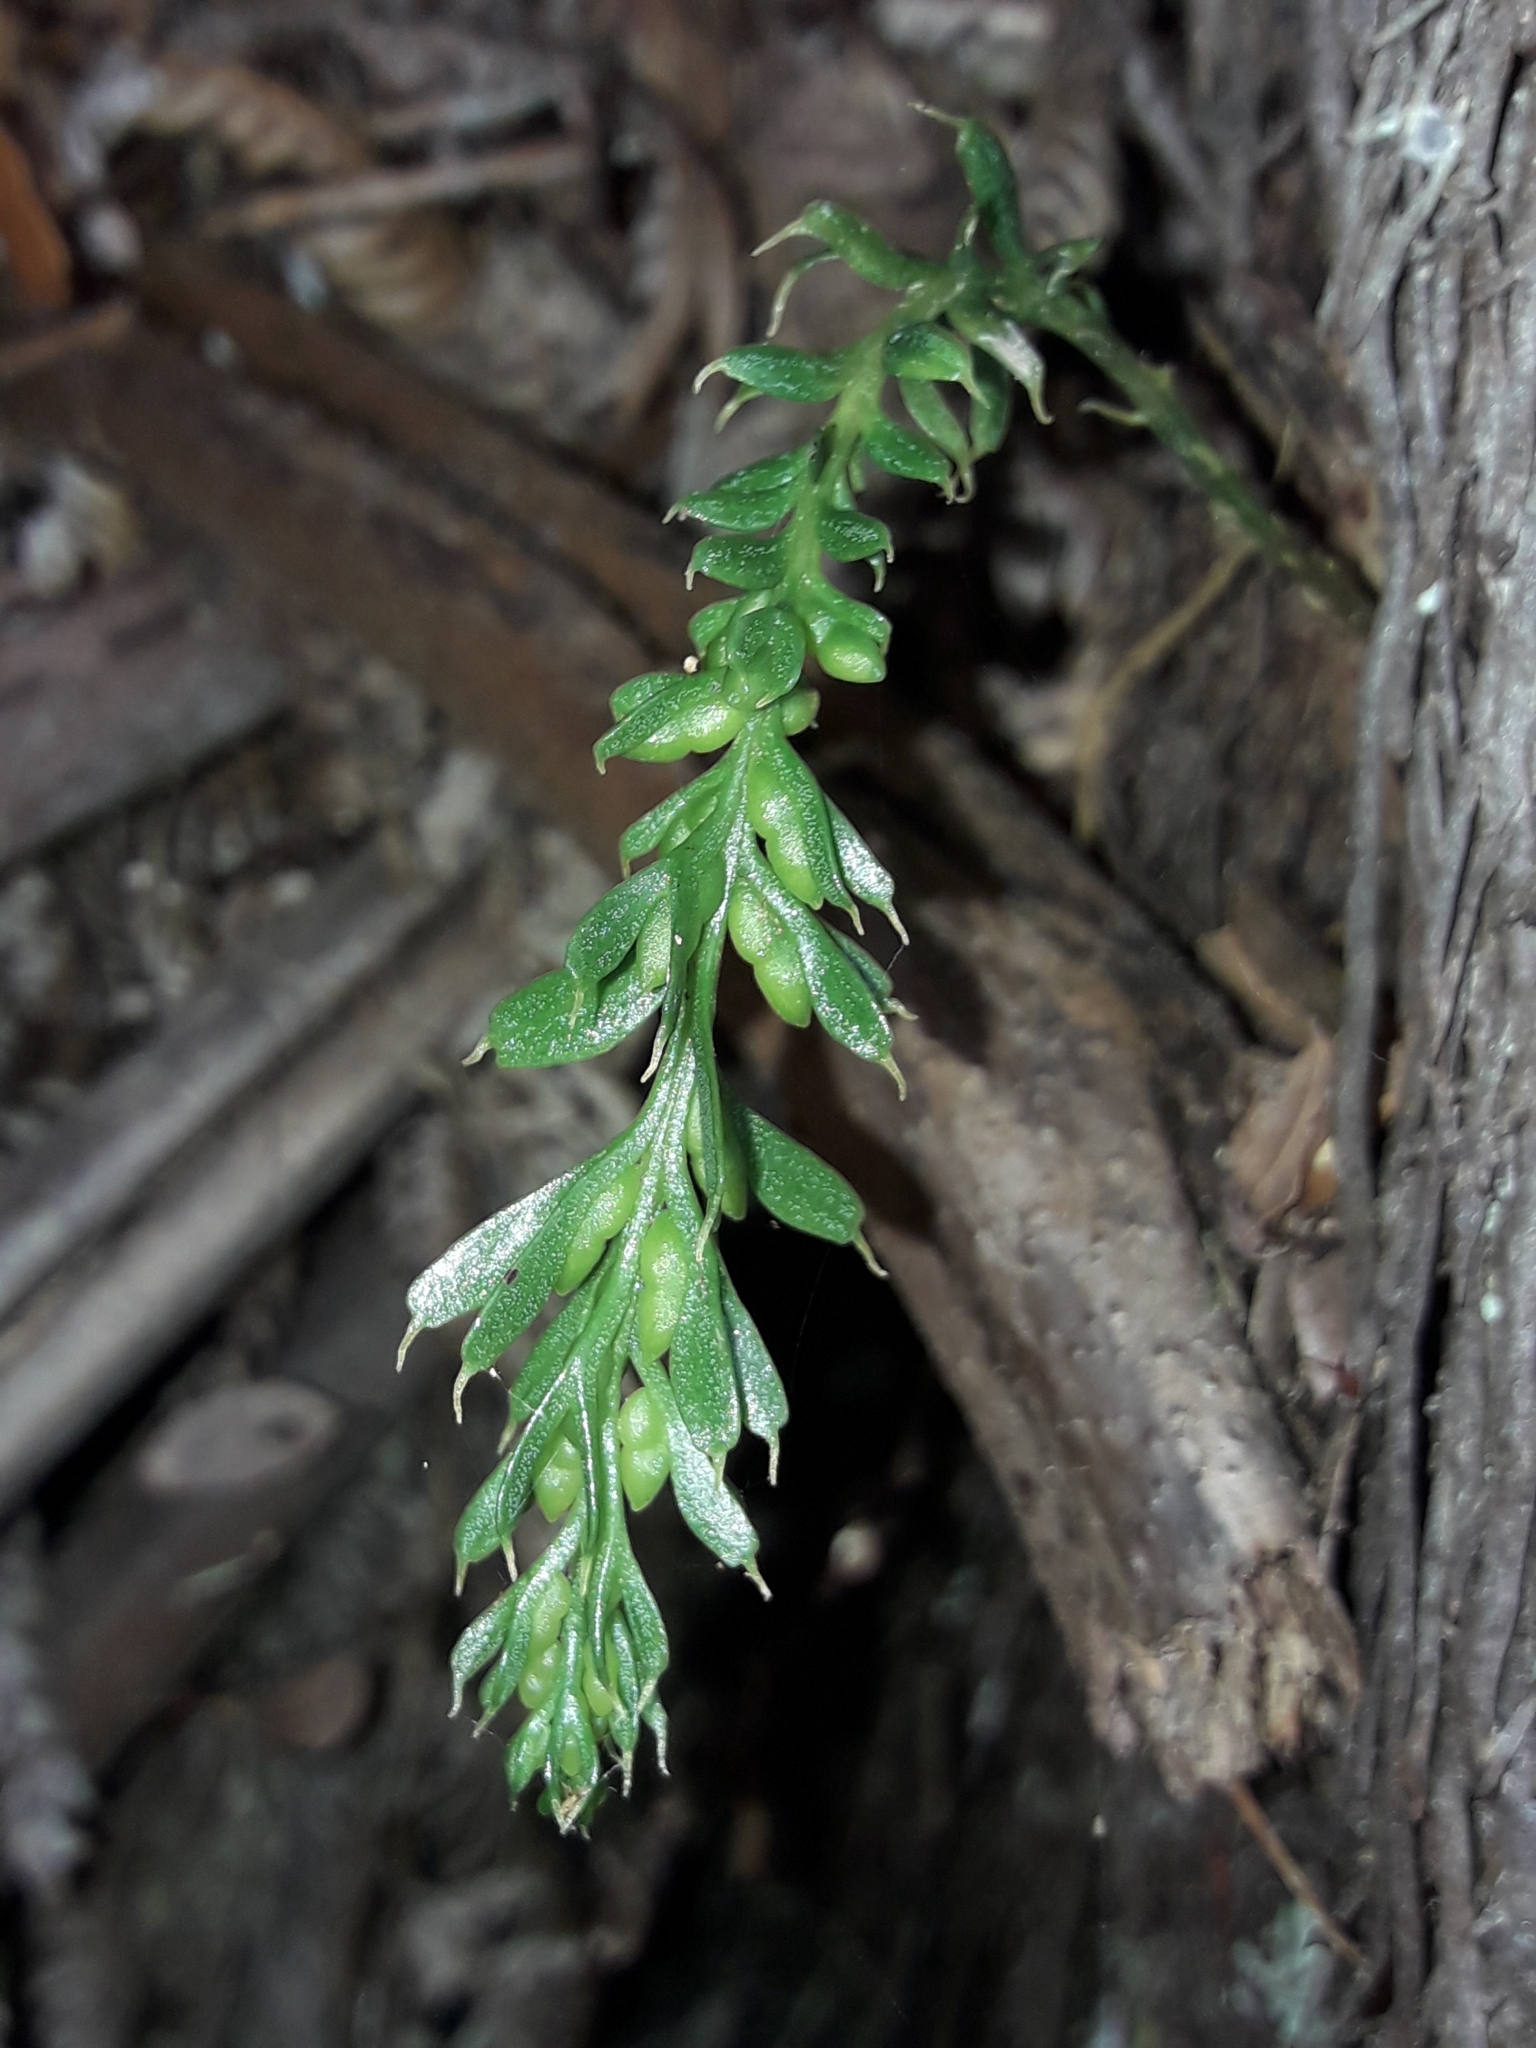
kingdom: Plantae
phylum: Tracheophyta
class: Polypodiopsida
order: Psilotales
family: Psilotaceae
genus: Tmesipteris
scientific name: Tmesipteris tannensis
